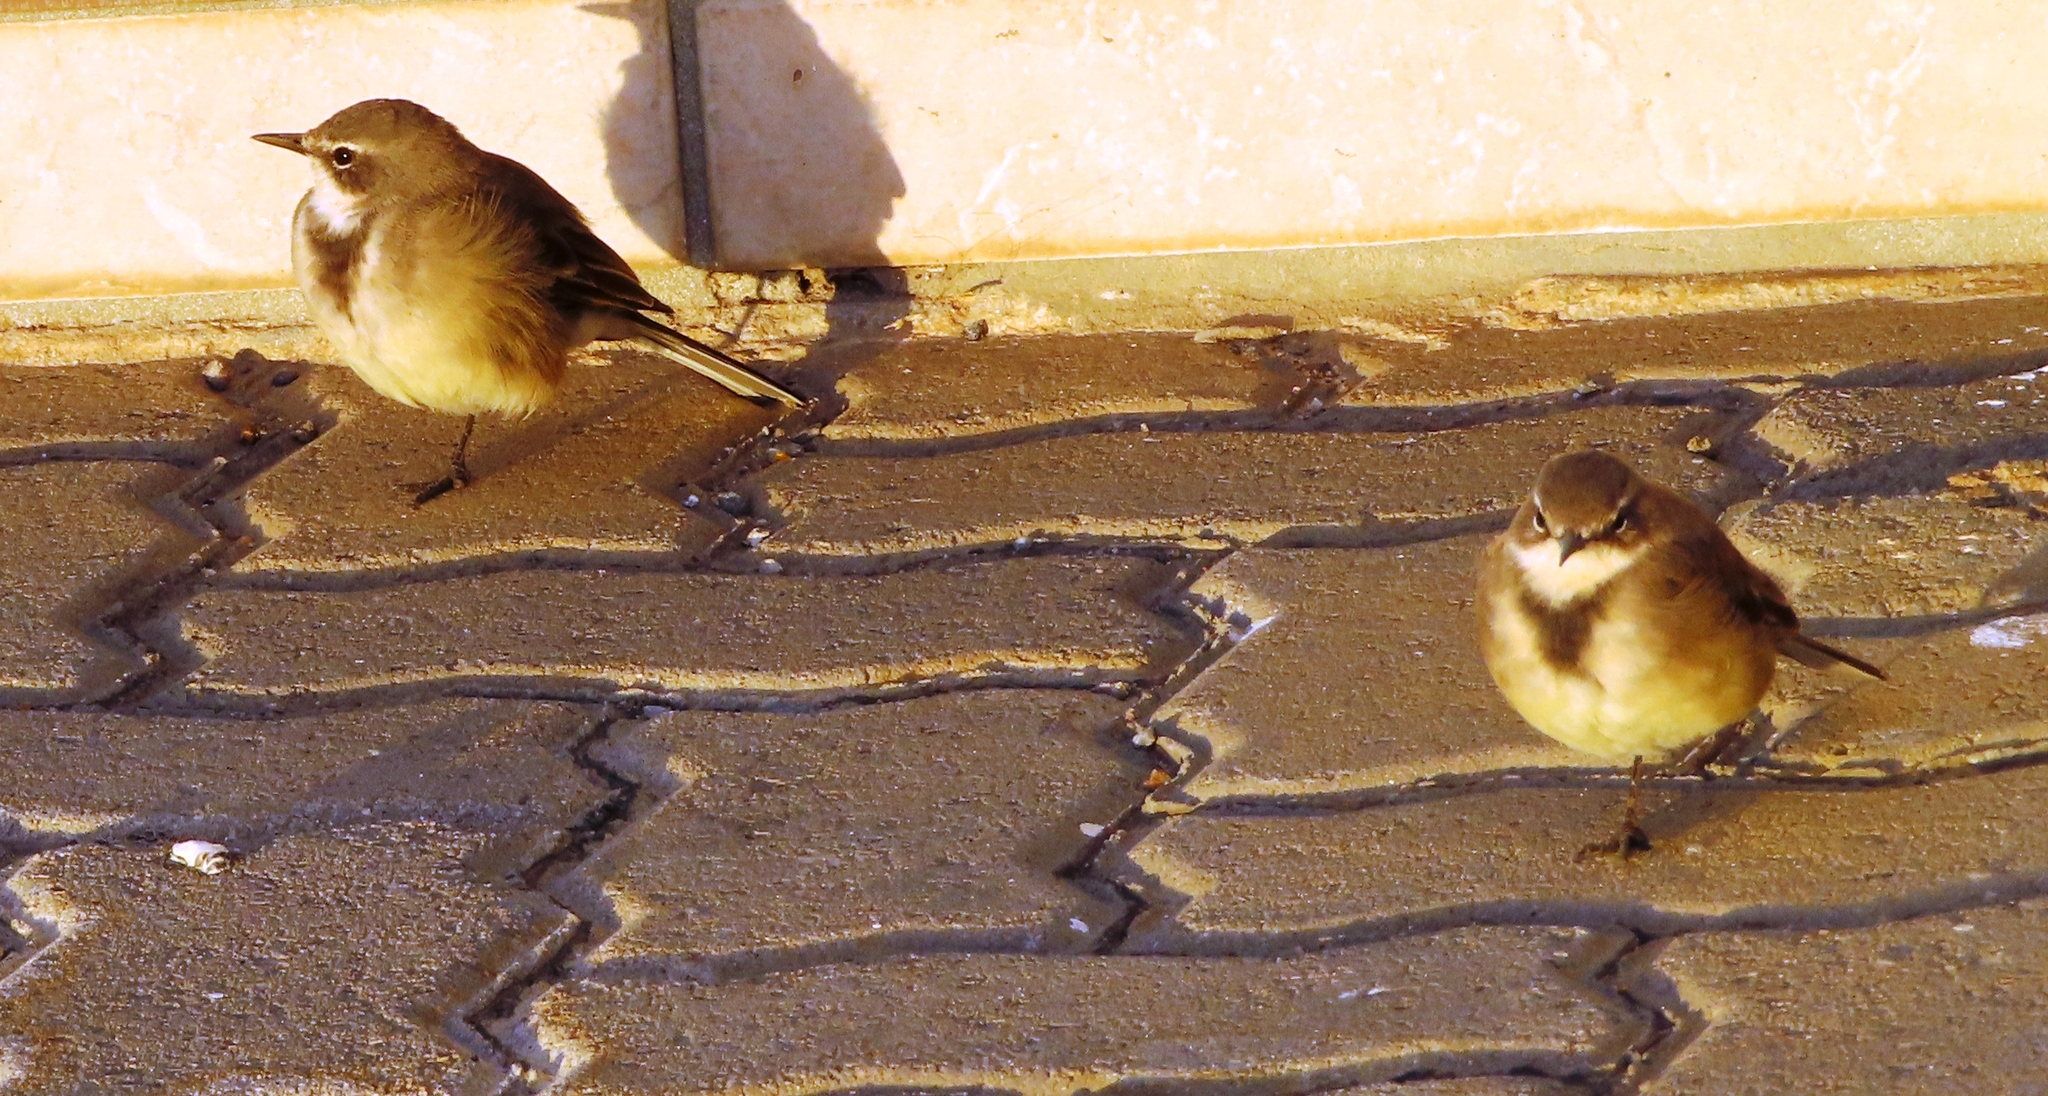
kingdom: Animalia
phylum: Chordata
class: Aves
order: Passeriformes
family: Motacillidae
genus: Motacilla
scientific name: Motacilla capensis
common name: Cape wagtail
